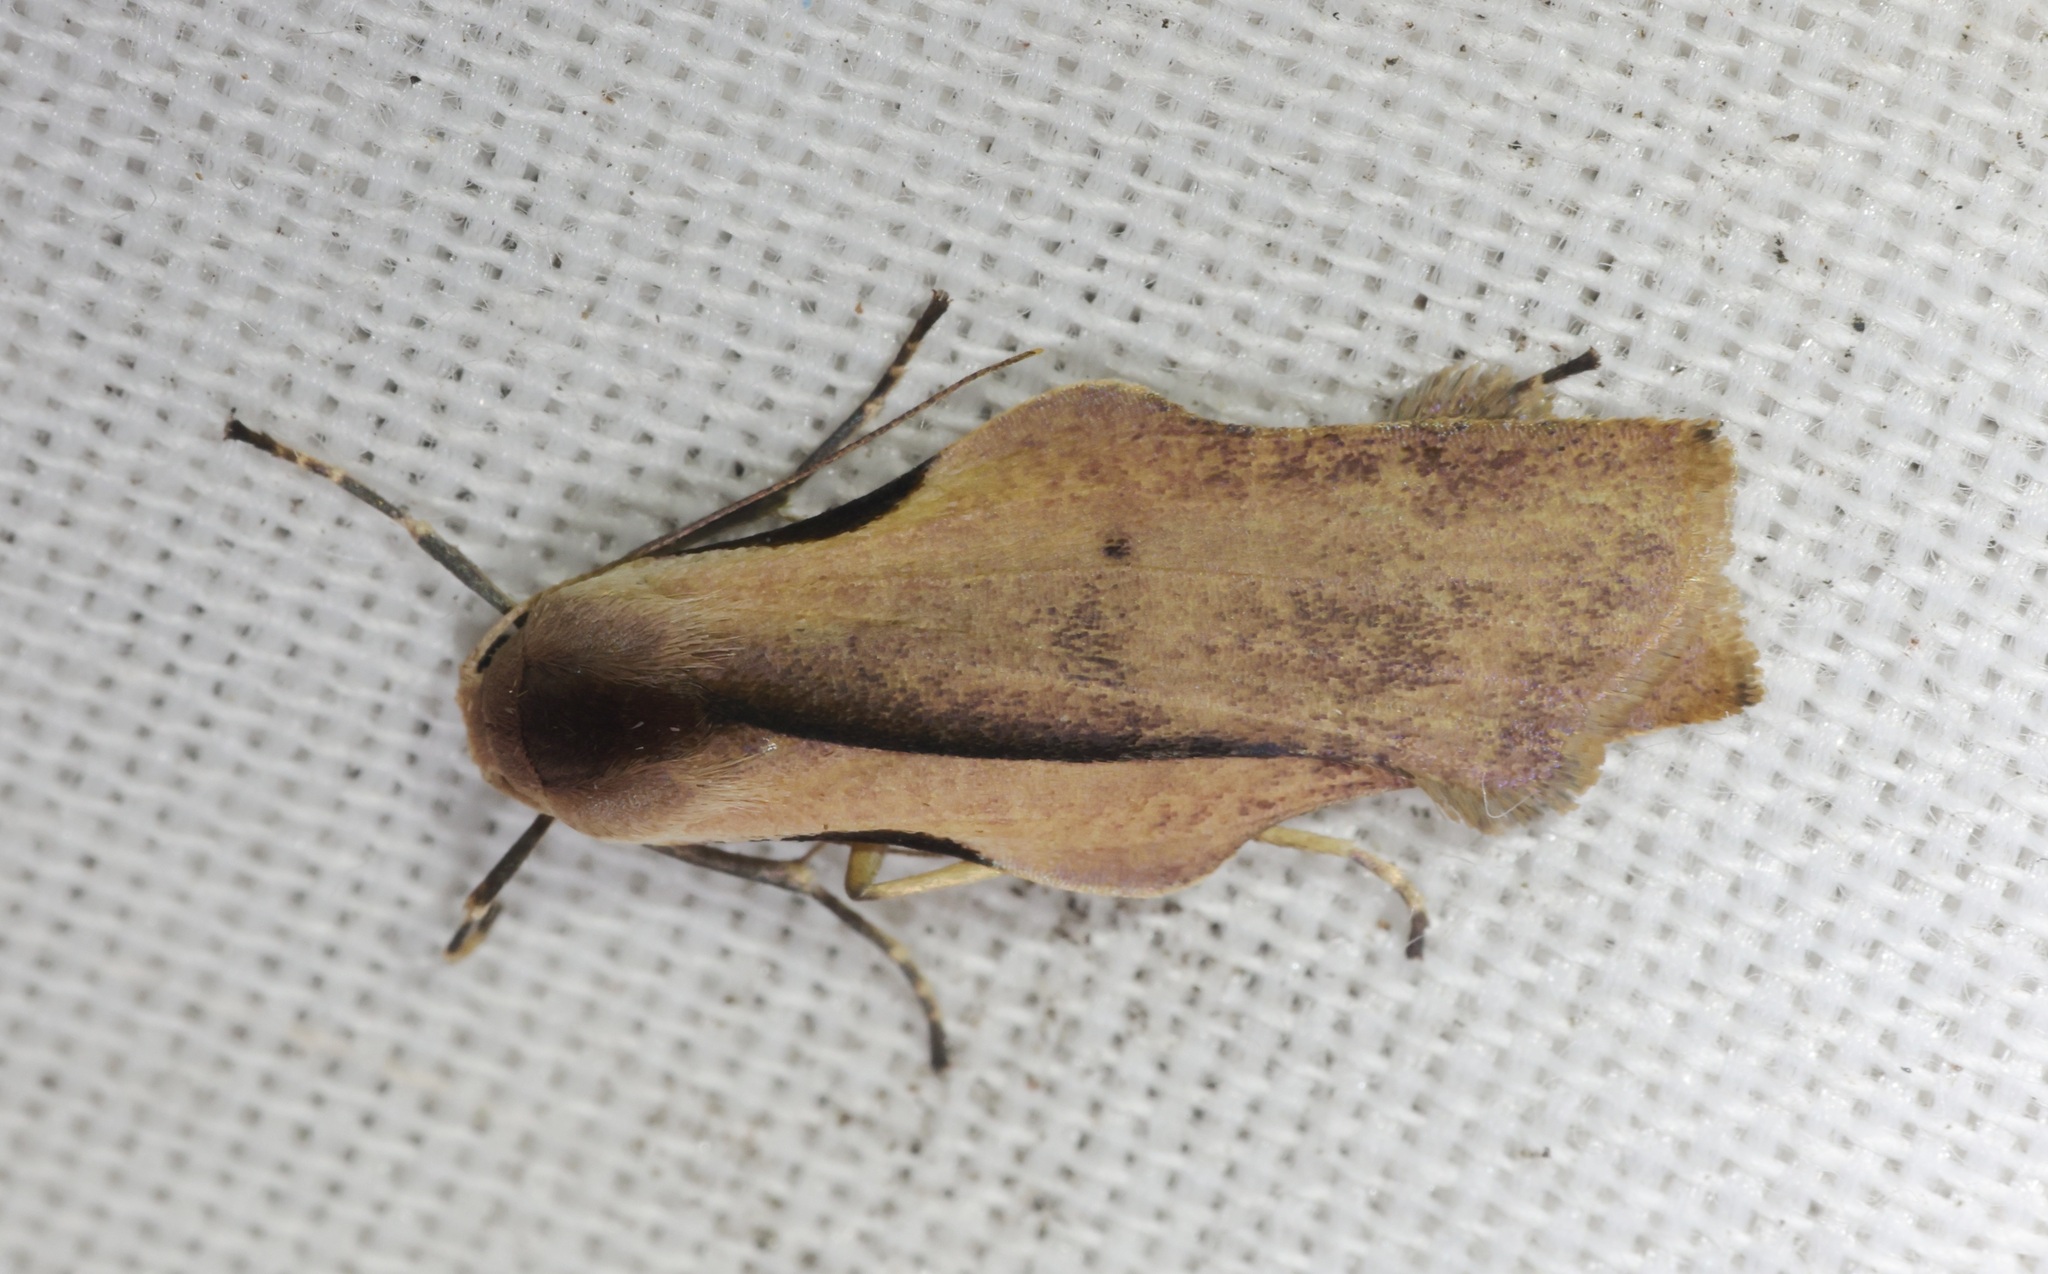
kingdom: Animalia
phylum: Arthropoda
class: Insecta
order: Lepidoptera
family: Erebidae
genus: Teulisna
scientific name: Teulisna tumida
